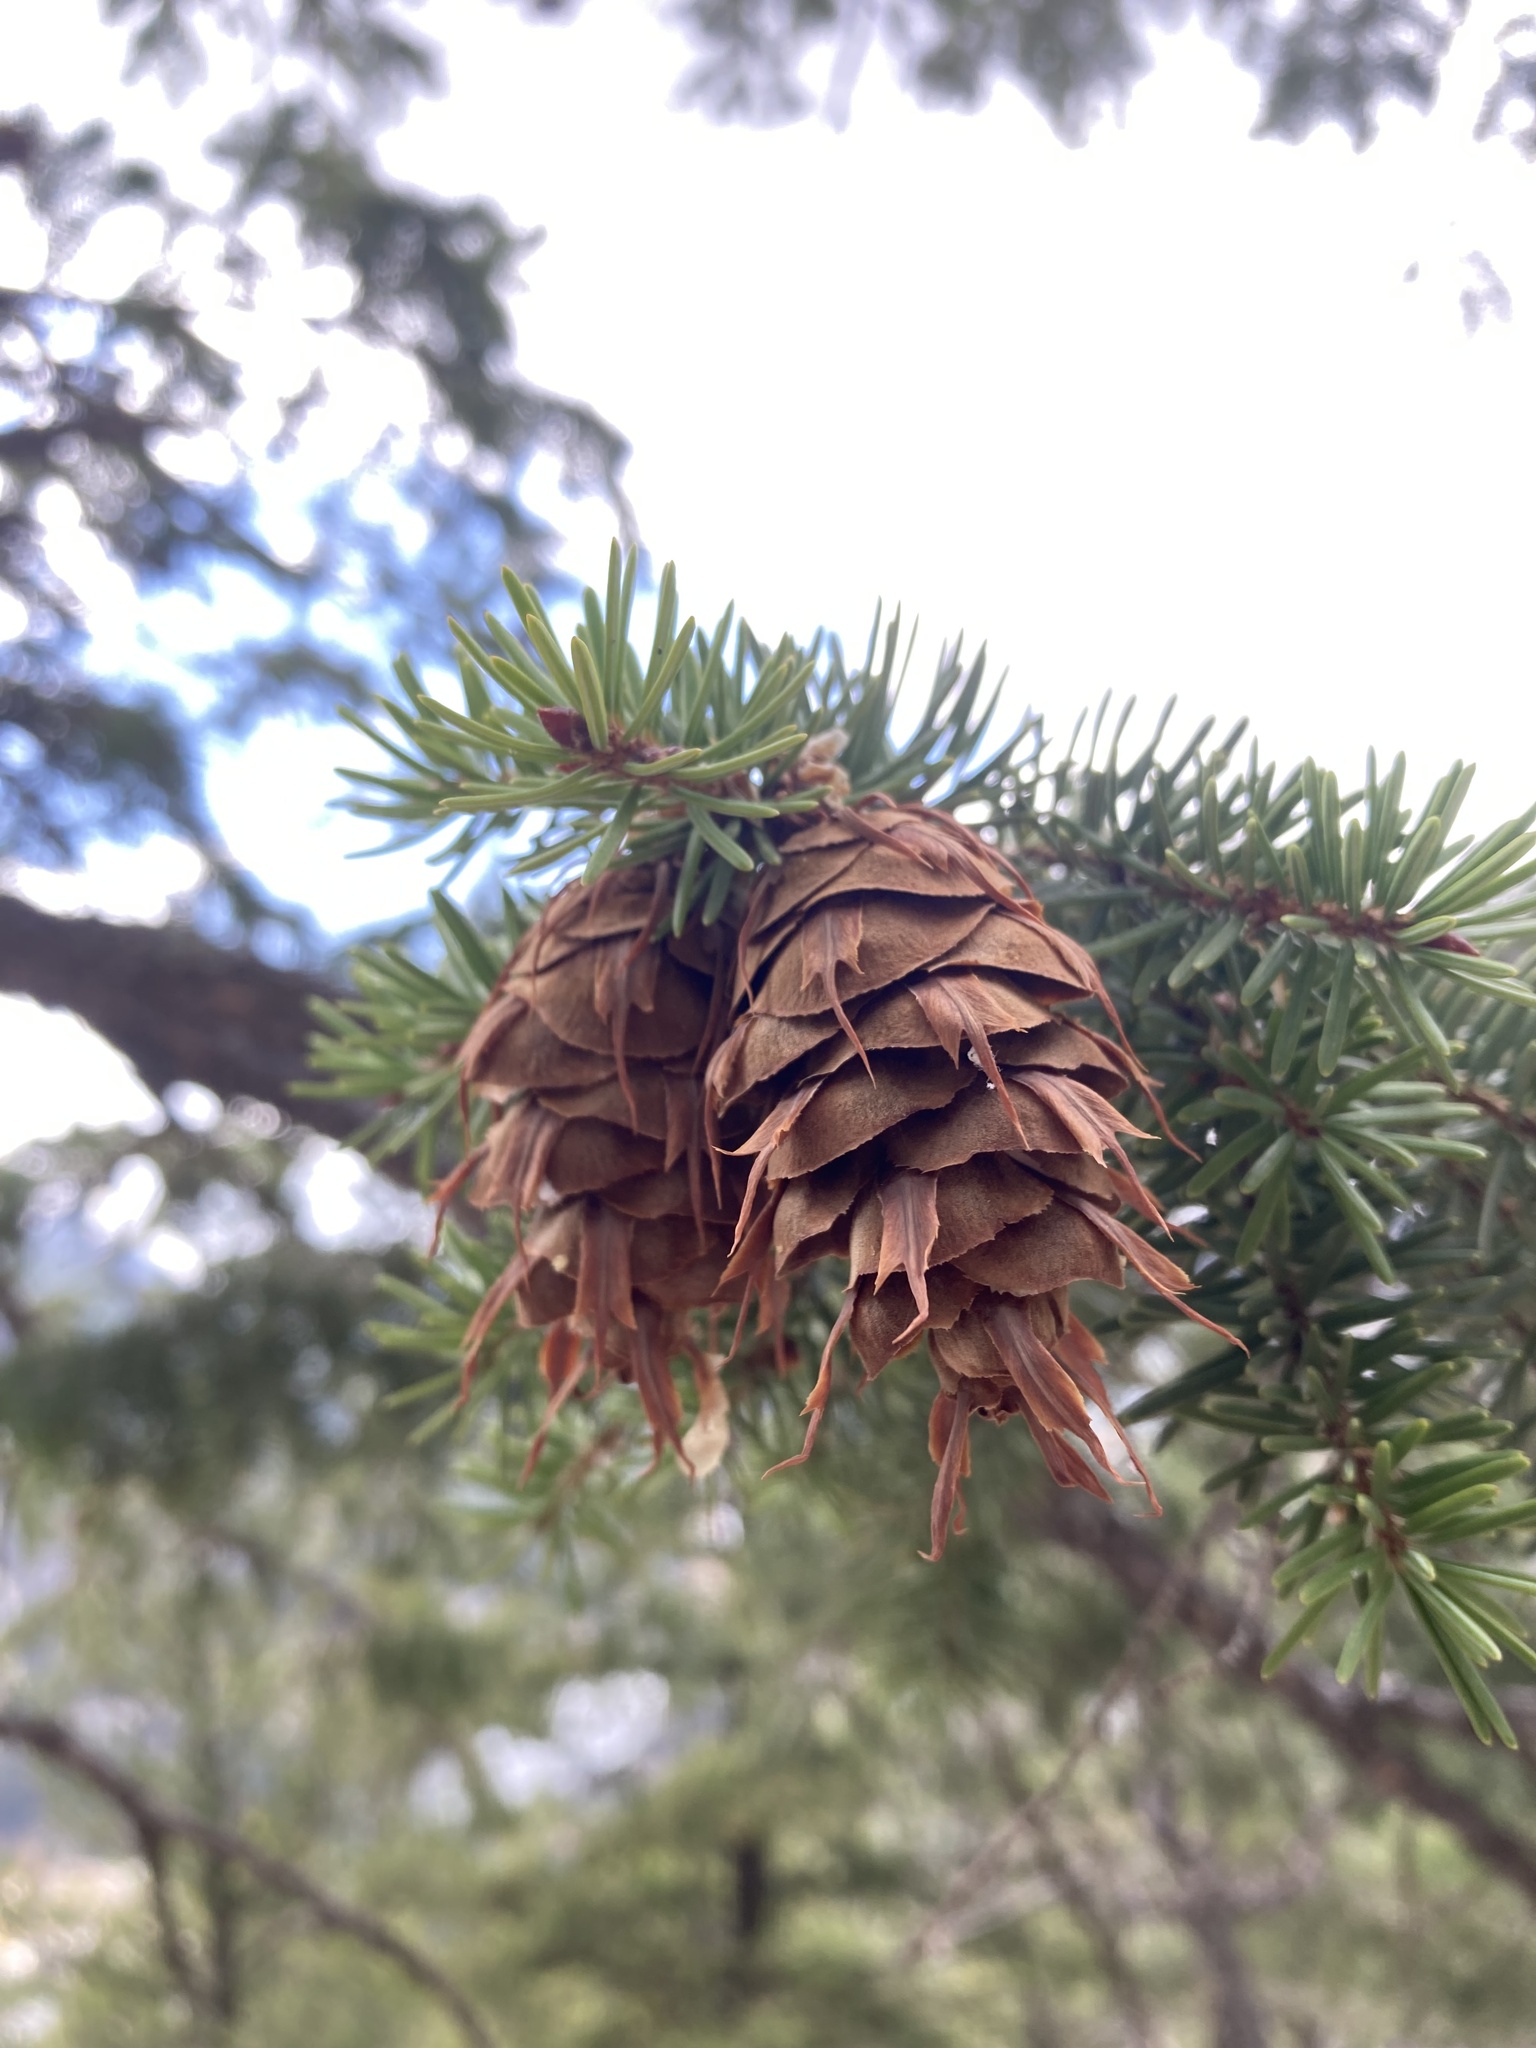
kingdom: Plantae
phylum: Tracheophyta
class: Pinopsida
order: Pinales
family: Pinaceae
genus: Pseudotsuga
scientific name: Pseudotsuga menziesii
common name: Douglas fir
